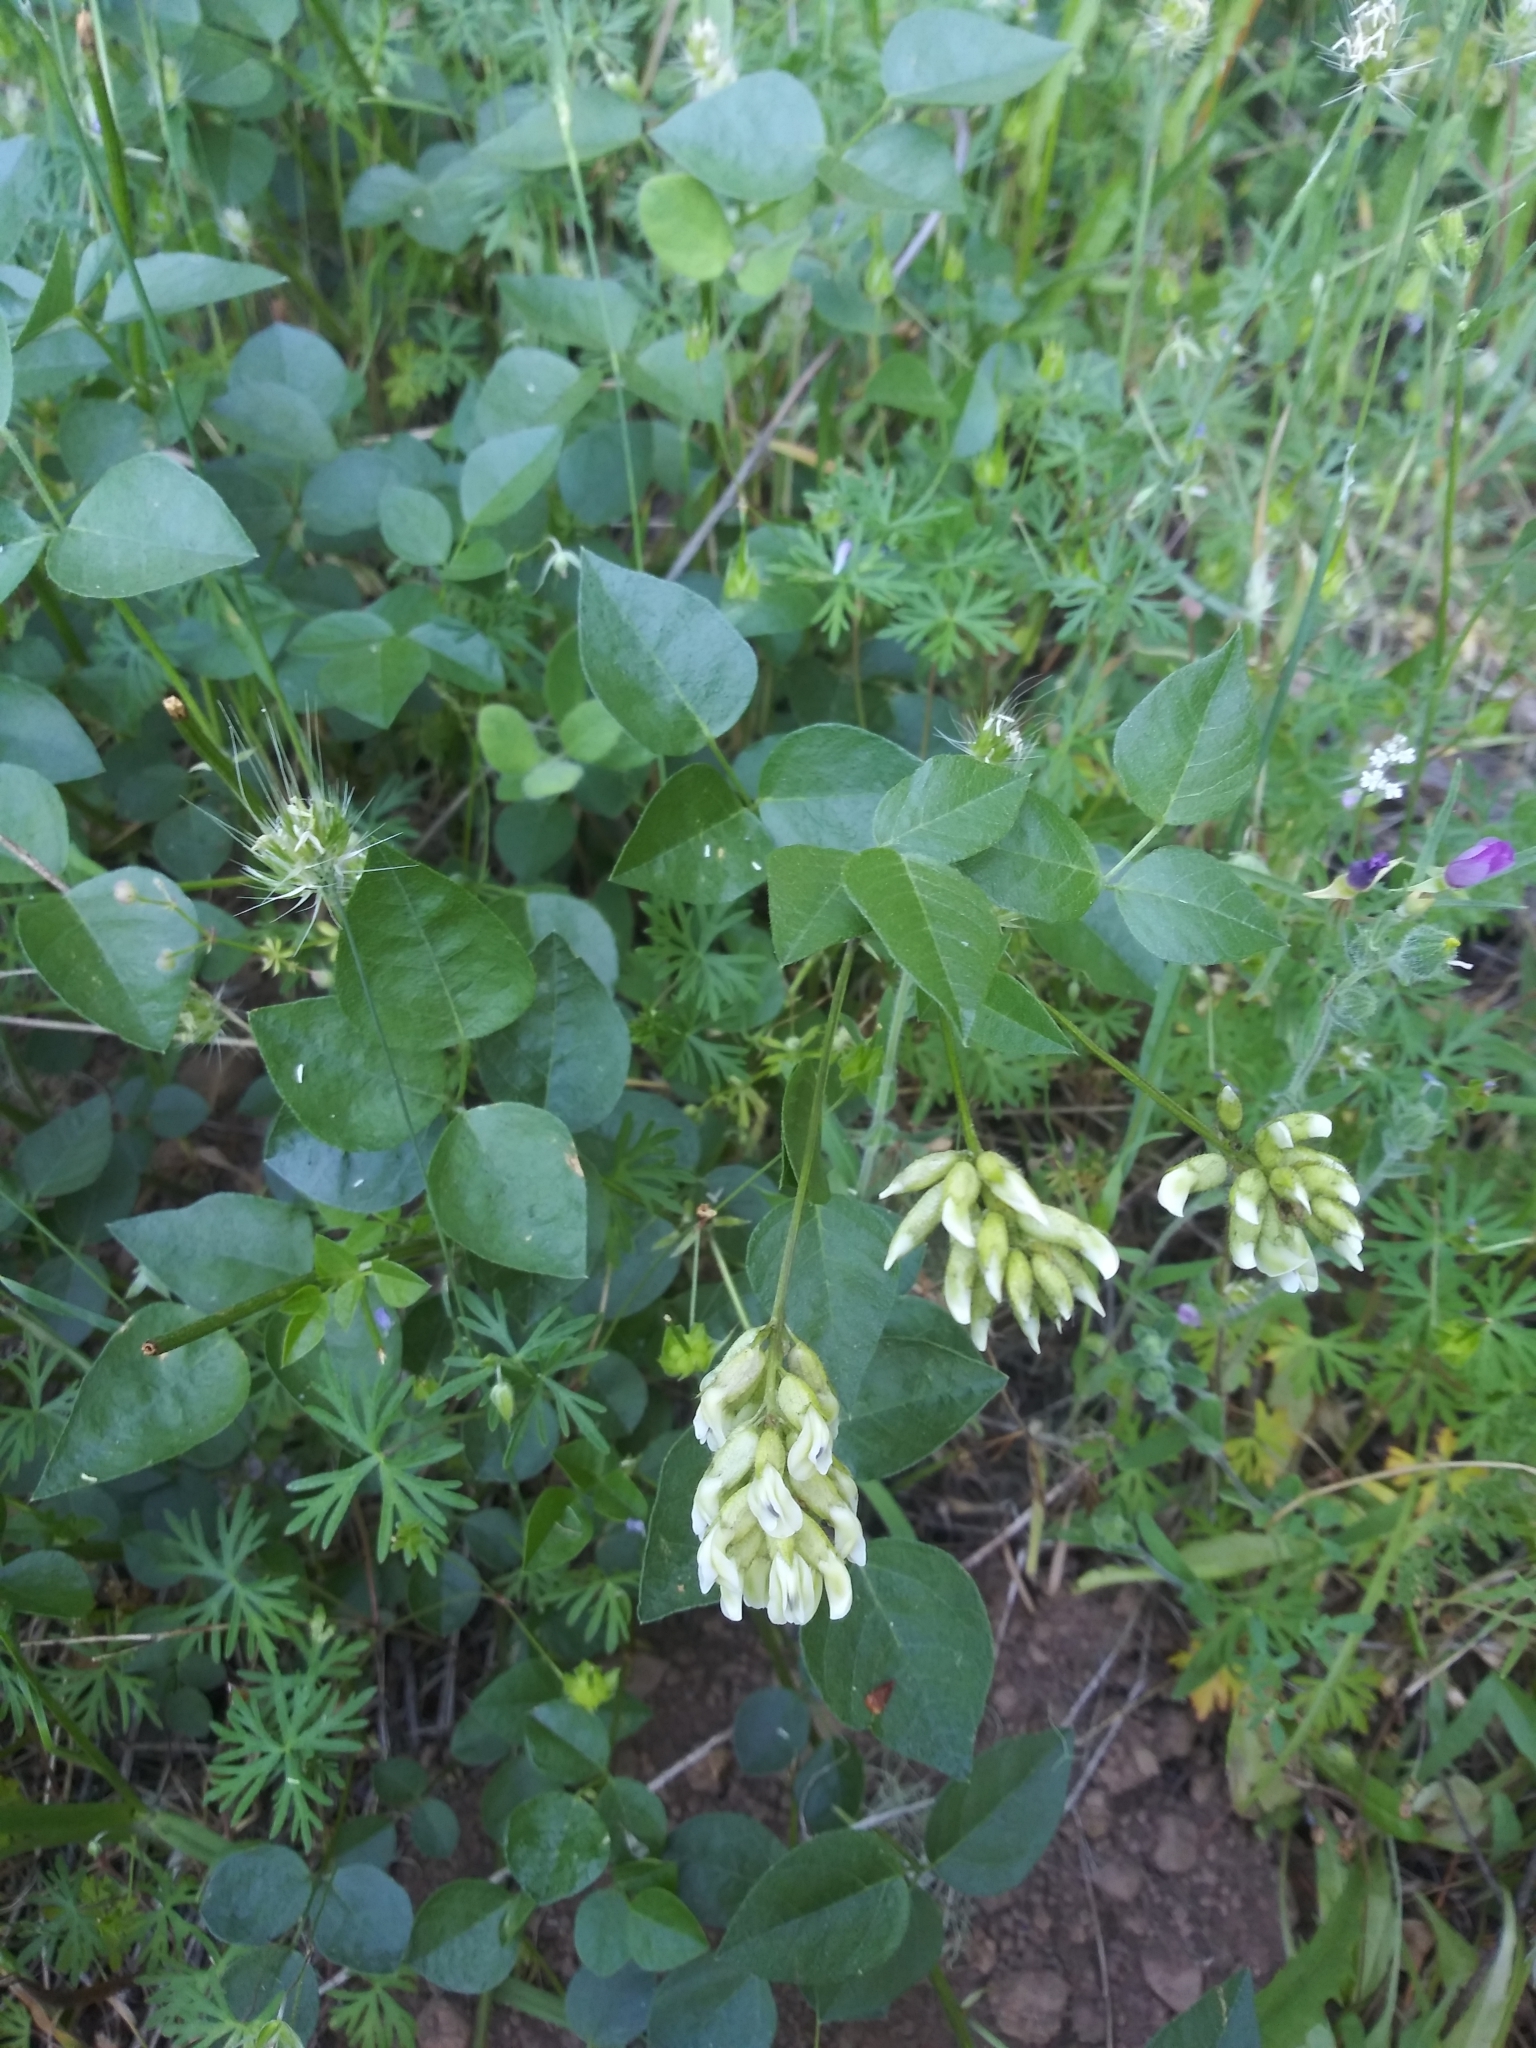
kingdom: Plantae
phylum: Tracheophyta
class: Magnoliopsida
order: Fabales
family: Fabaceae
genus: Rupertia
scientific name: Rupertia physodes
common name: California-tea
